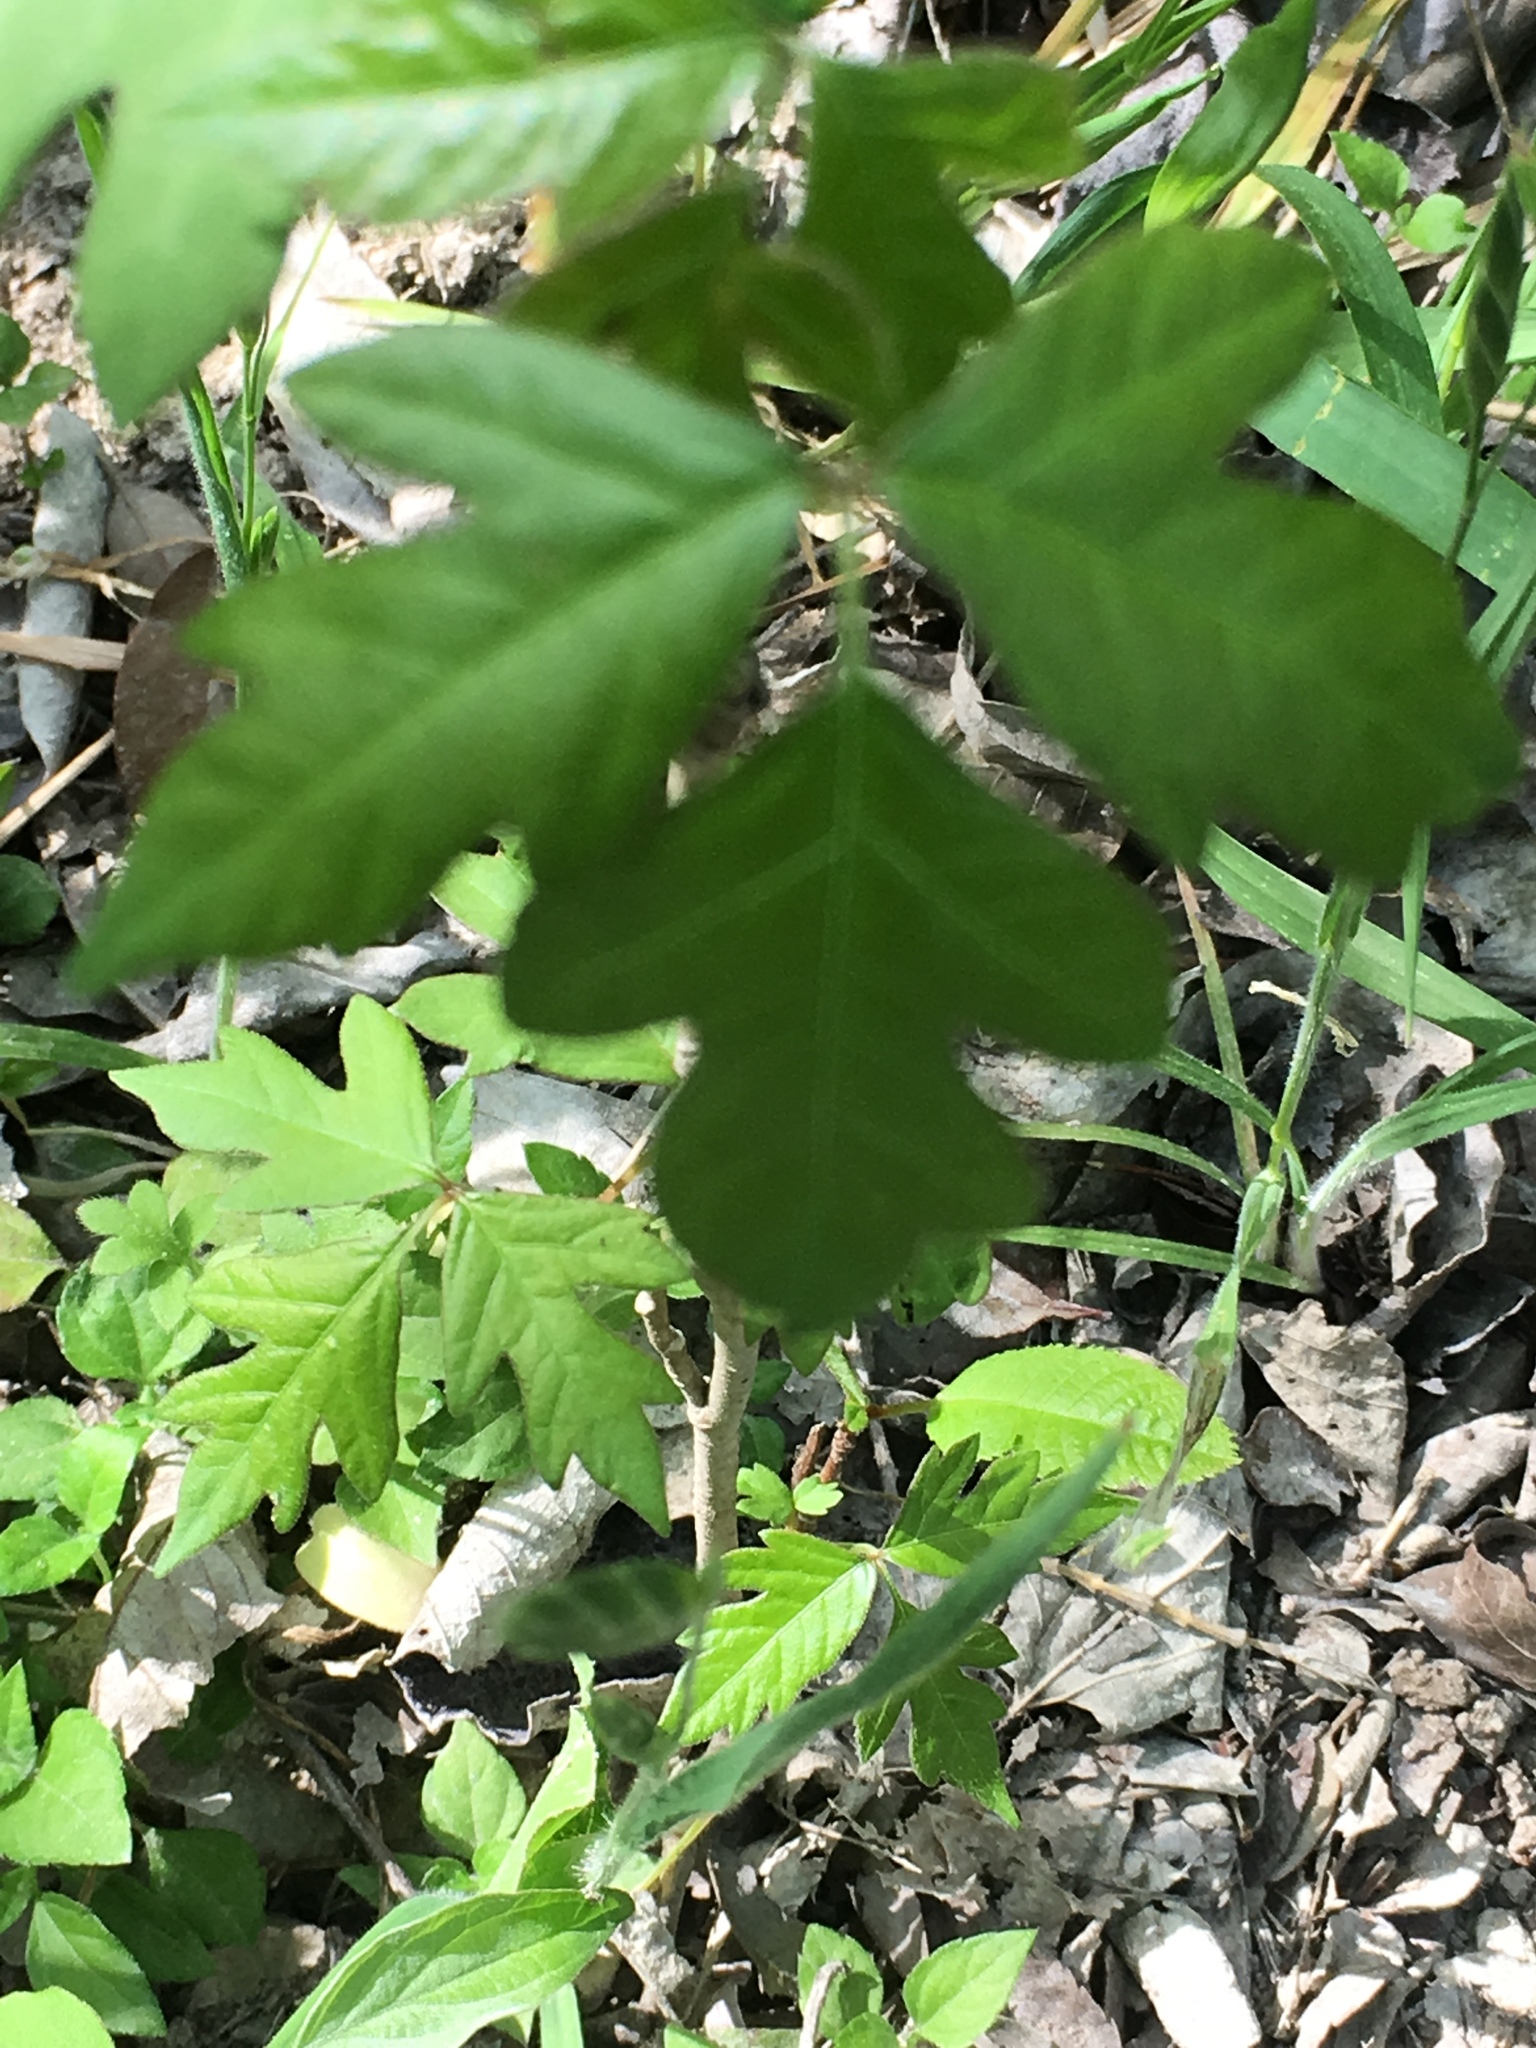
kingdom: Plantae
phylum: Tracheophyta
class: Magnoliopsida
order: Sapindales
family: Anacardiaceae
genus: Toxicodendron
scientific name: Toxicodendron radicans
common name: Poison ivy
